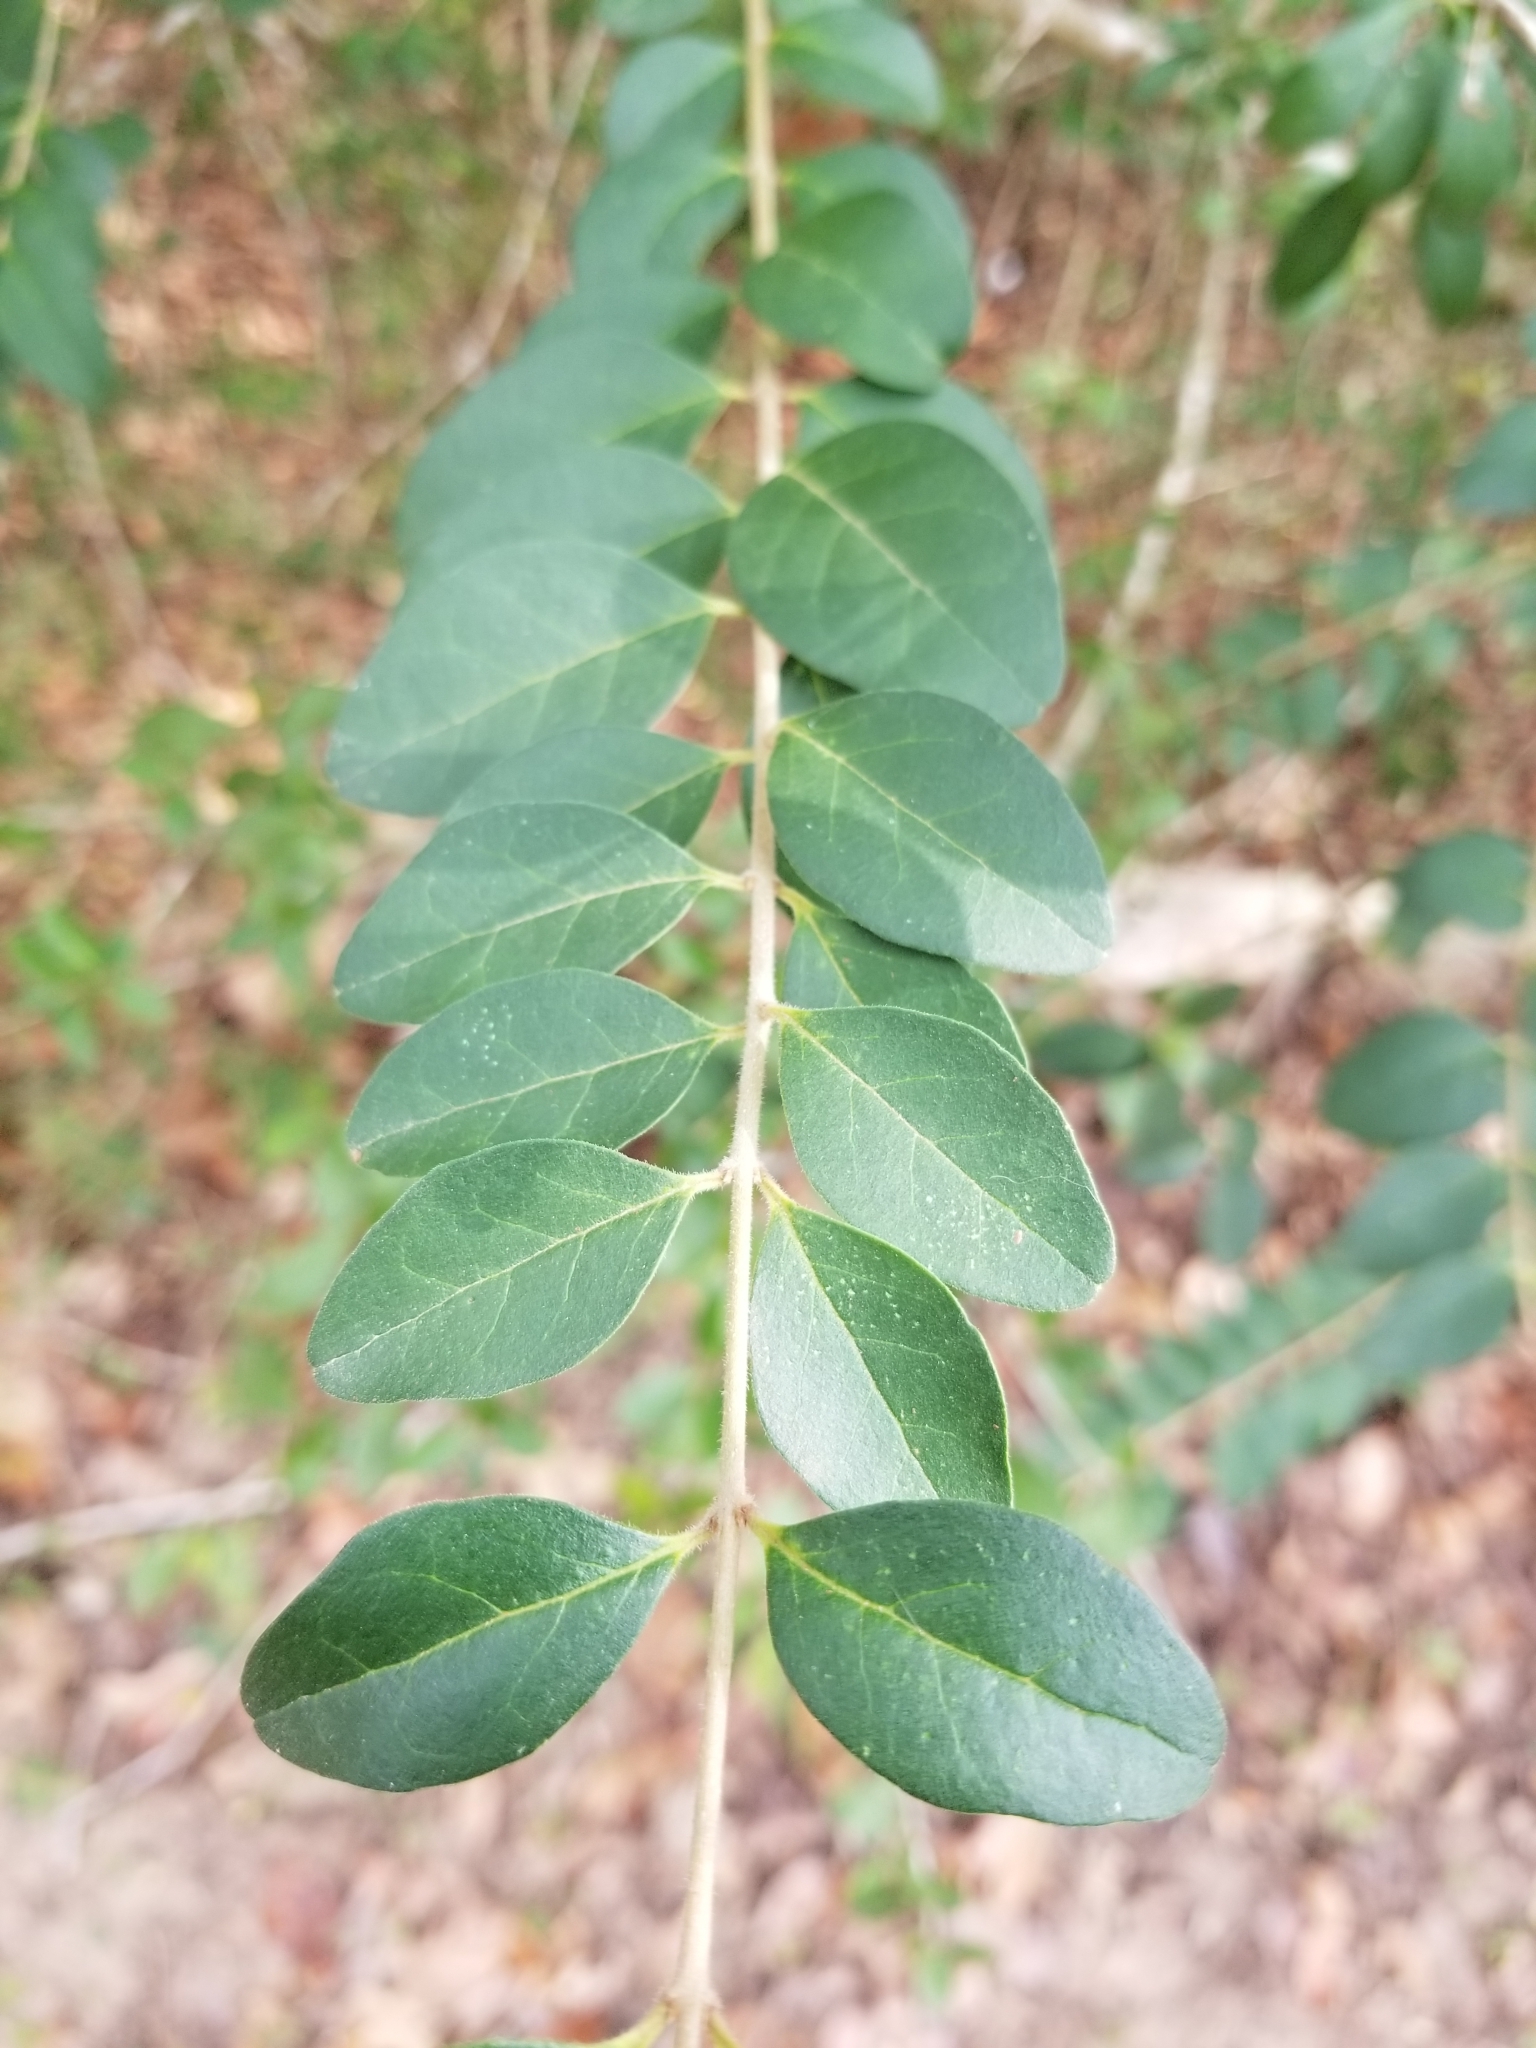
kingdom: Plantae
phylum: Tracheophyta
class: Magnoliopsida
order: Lamiales
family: Oleaceae
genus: Ligustrum
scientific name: Ligustrum sinense
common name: Chinese privet
